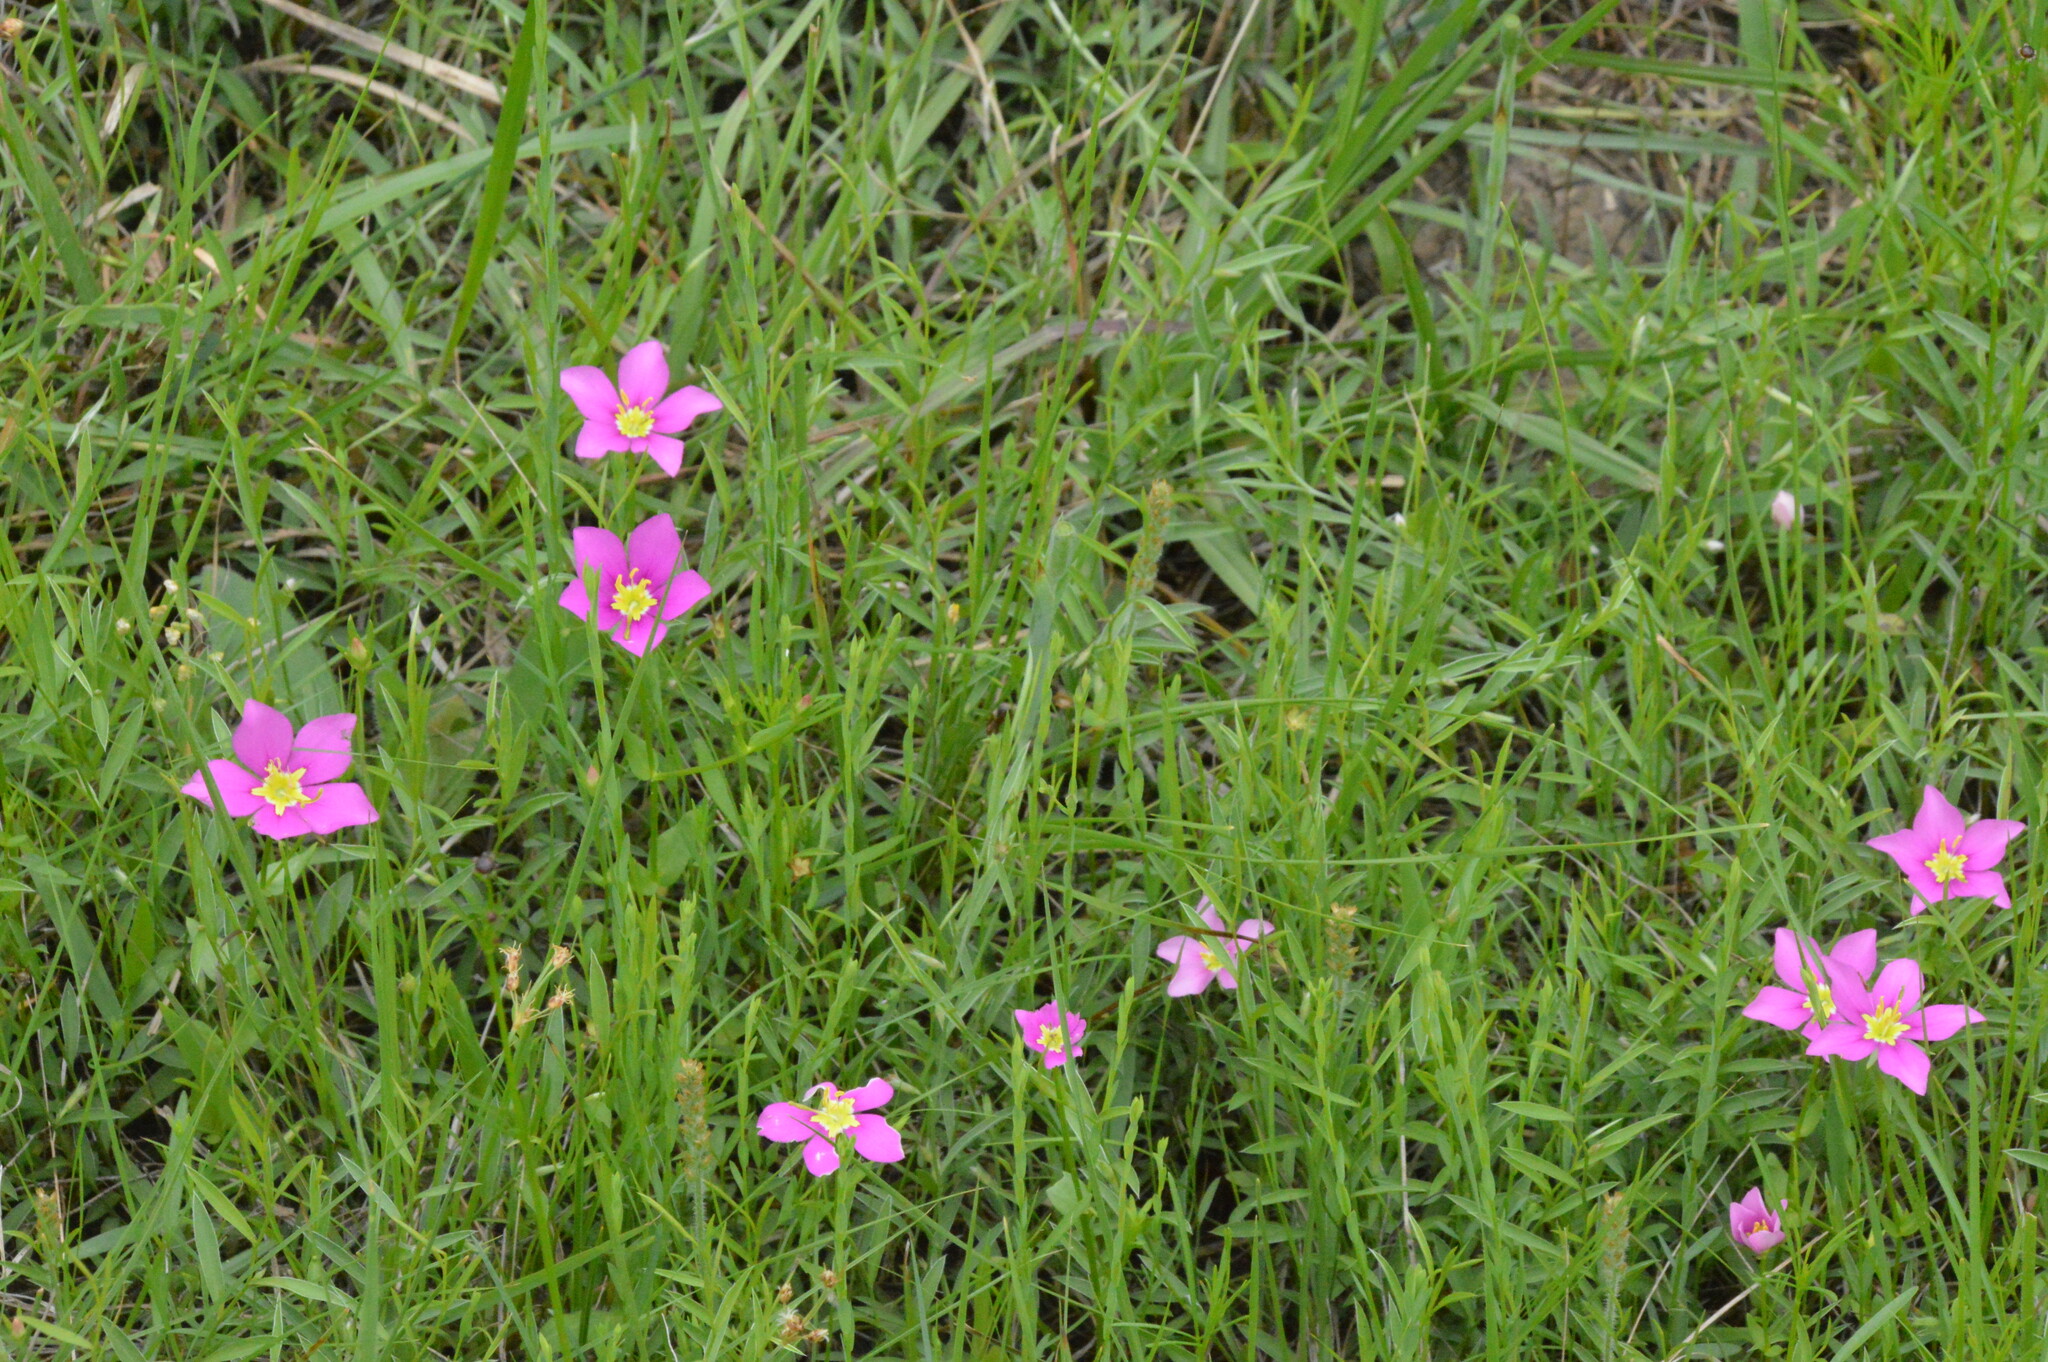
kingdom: Plantae
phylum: Tracheophyta
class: Magnoliopsida
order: Gentianales
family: Gentianaceae
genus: Sabatia
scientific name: Sabatia campestris
